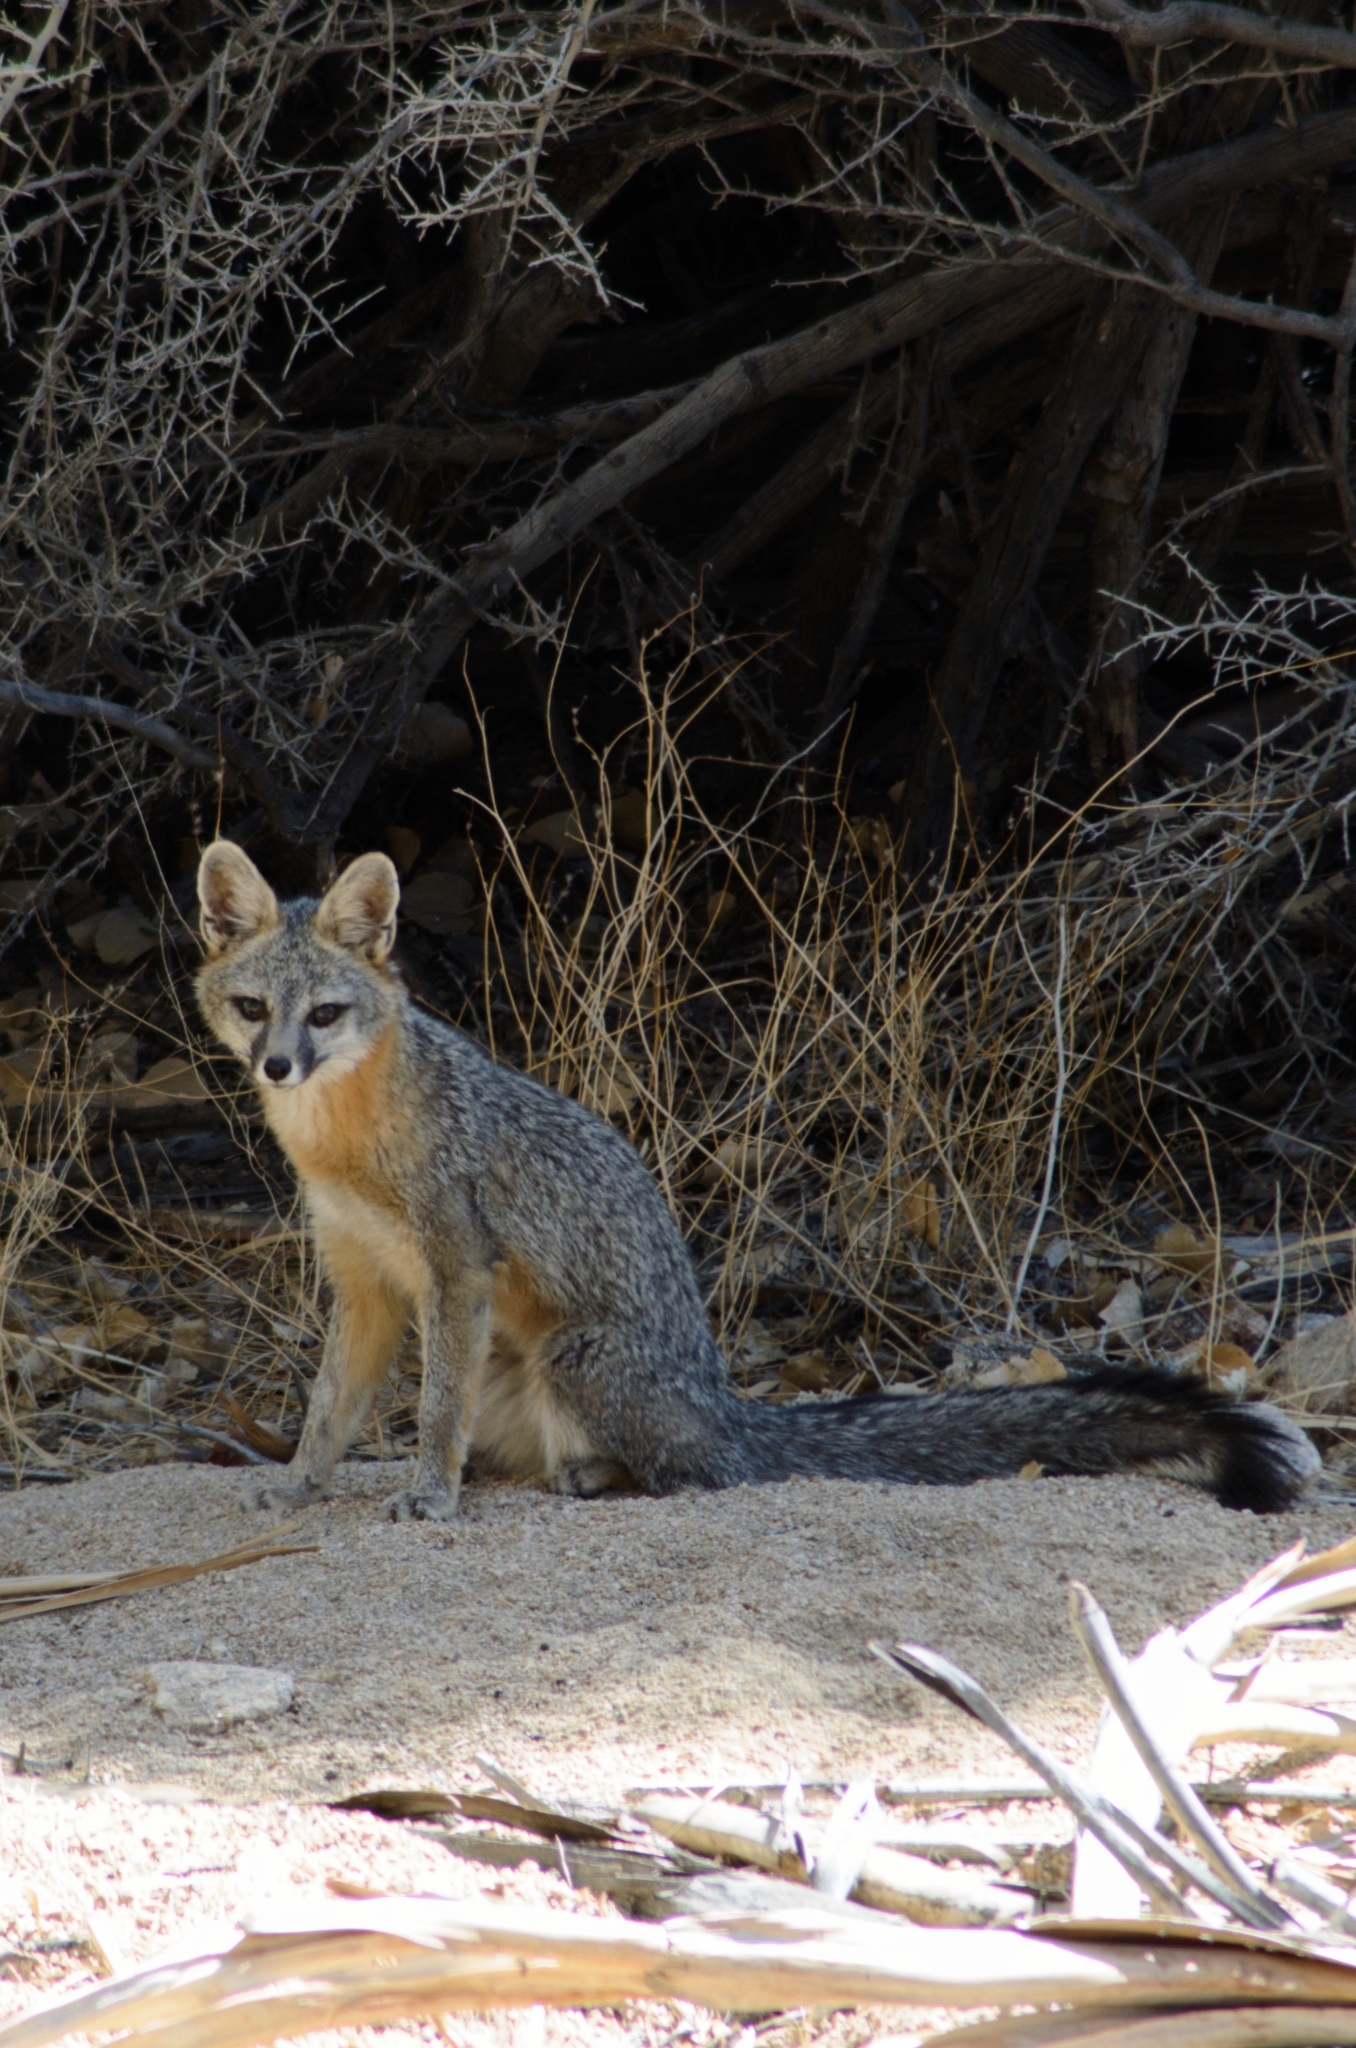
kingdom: Animalia
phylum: Chordata
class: Mammalia
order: Carnivora
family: Canidae
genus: Urocyon
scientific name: Urocyon cinereoargenteus
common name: Gray fox
